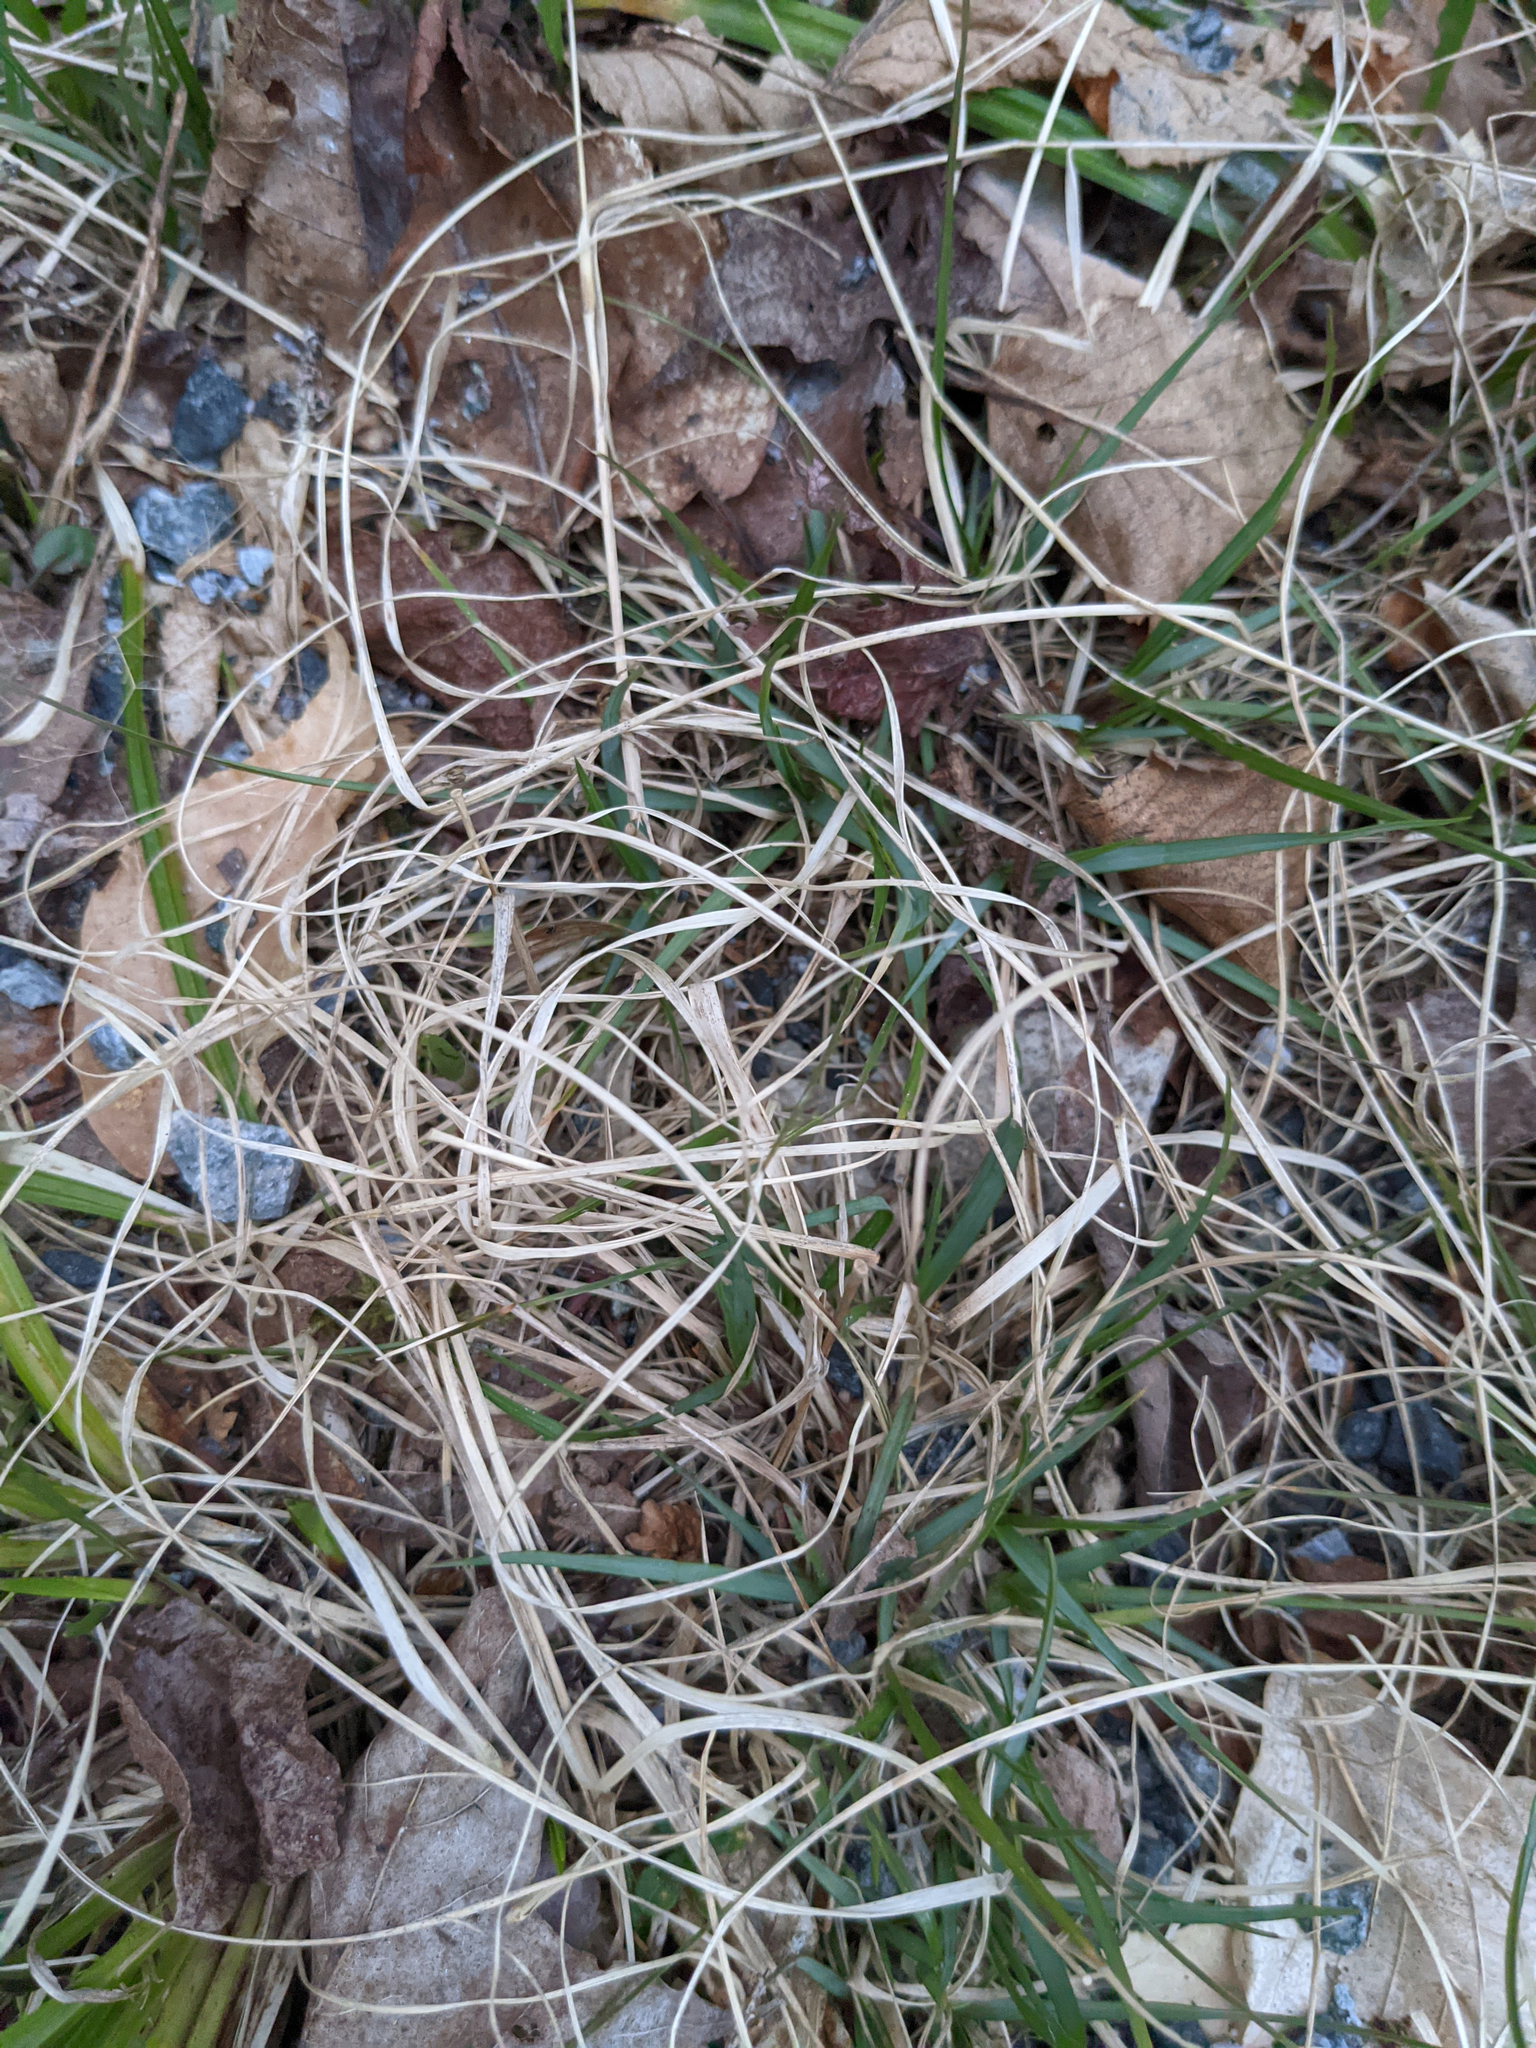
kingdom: Plantae
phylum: Tracheophyta
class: Liliopsida
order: Poales
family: Poaceae
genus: Danthonia
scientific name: Danthonia spicata
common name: Common wild oatgrass
